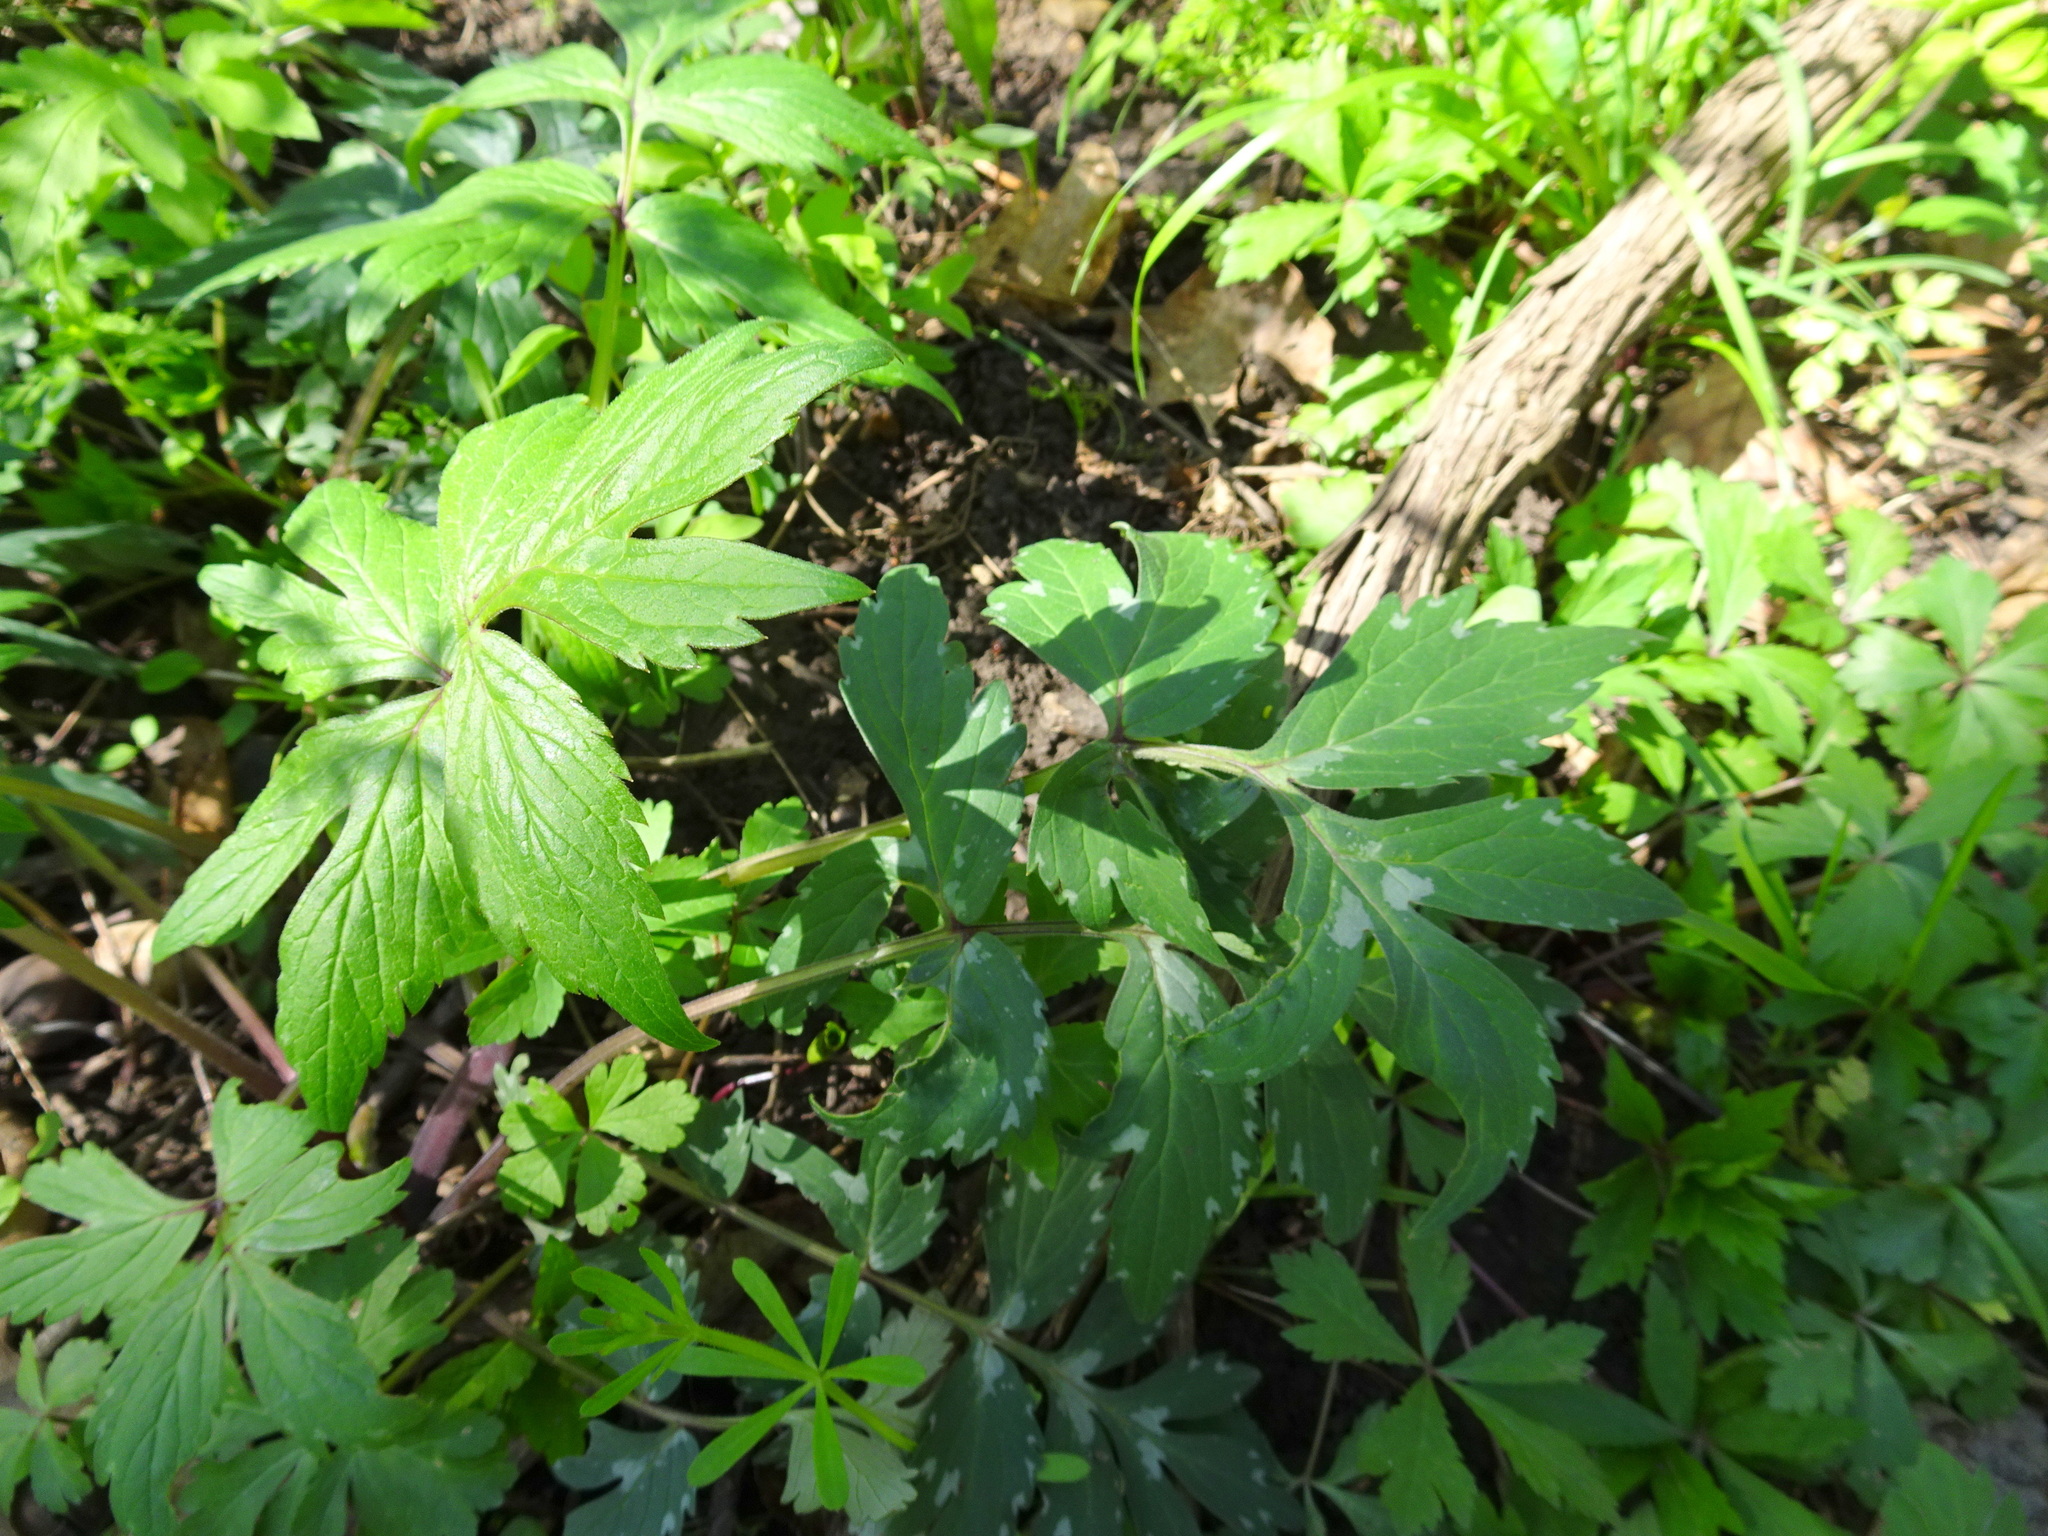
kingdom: Plantae
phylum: Tracheophyta
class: Magnoliopsida
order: Boraginales
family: Hydrophyllaceae
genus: Hydrophyllum
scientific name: Hydrophyllum virginianum
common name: Virginia waterleaf
